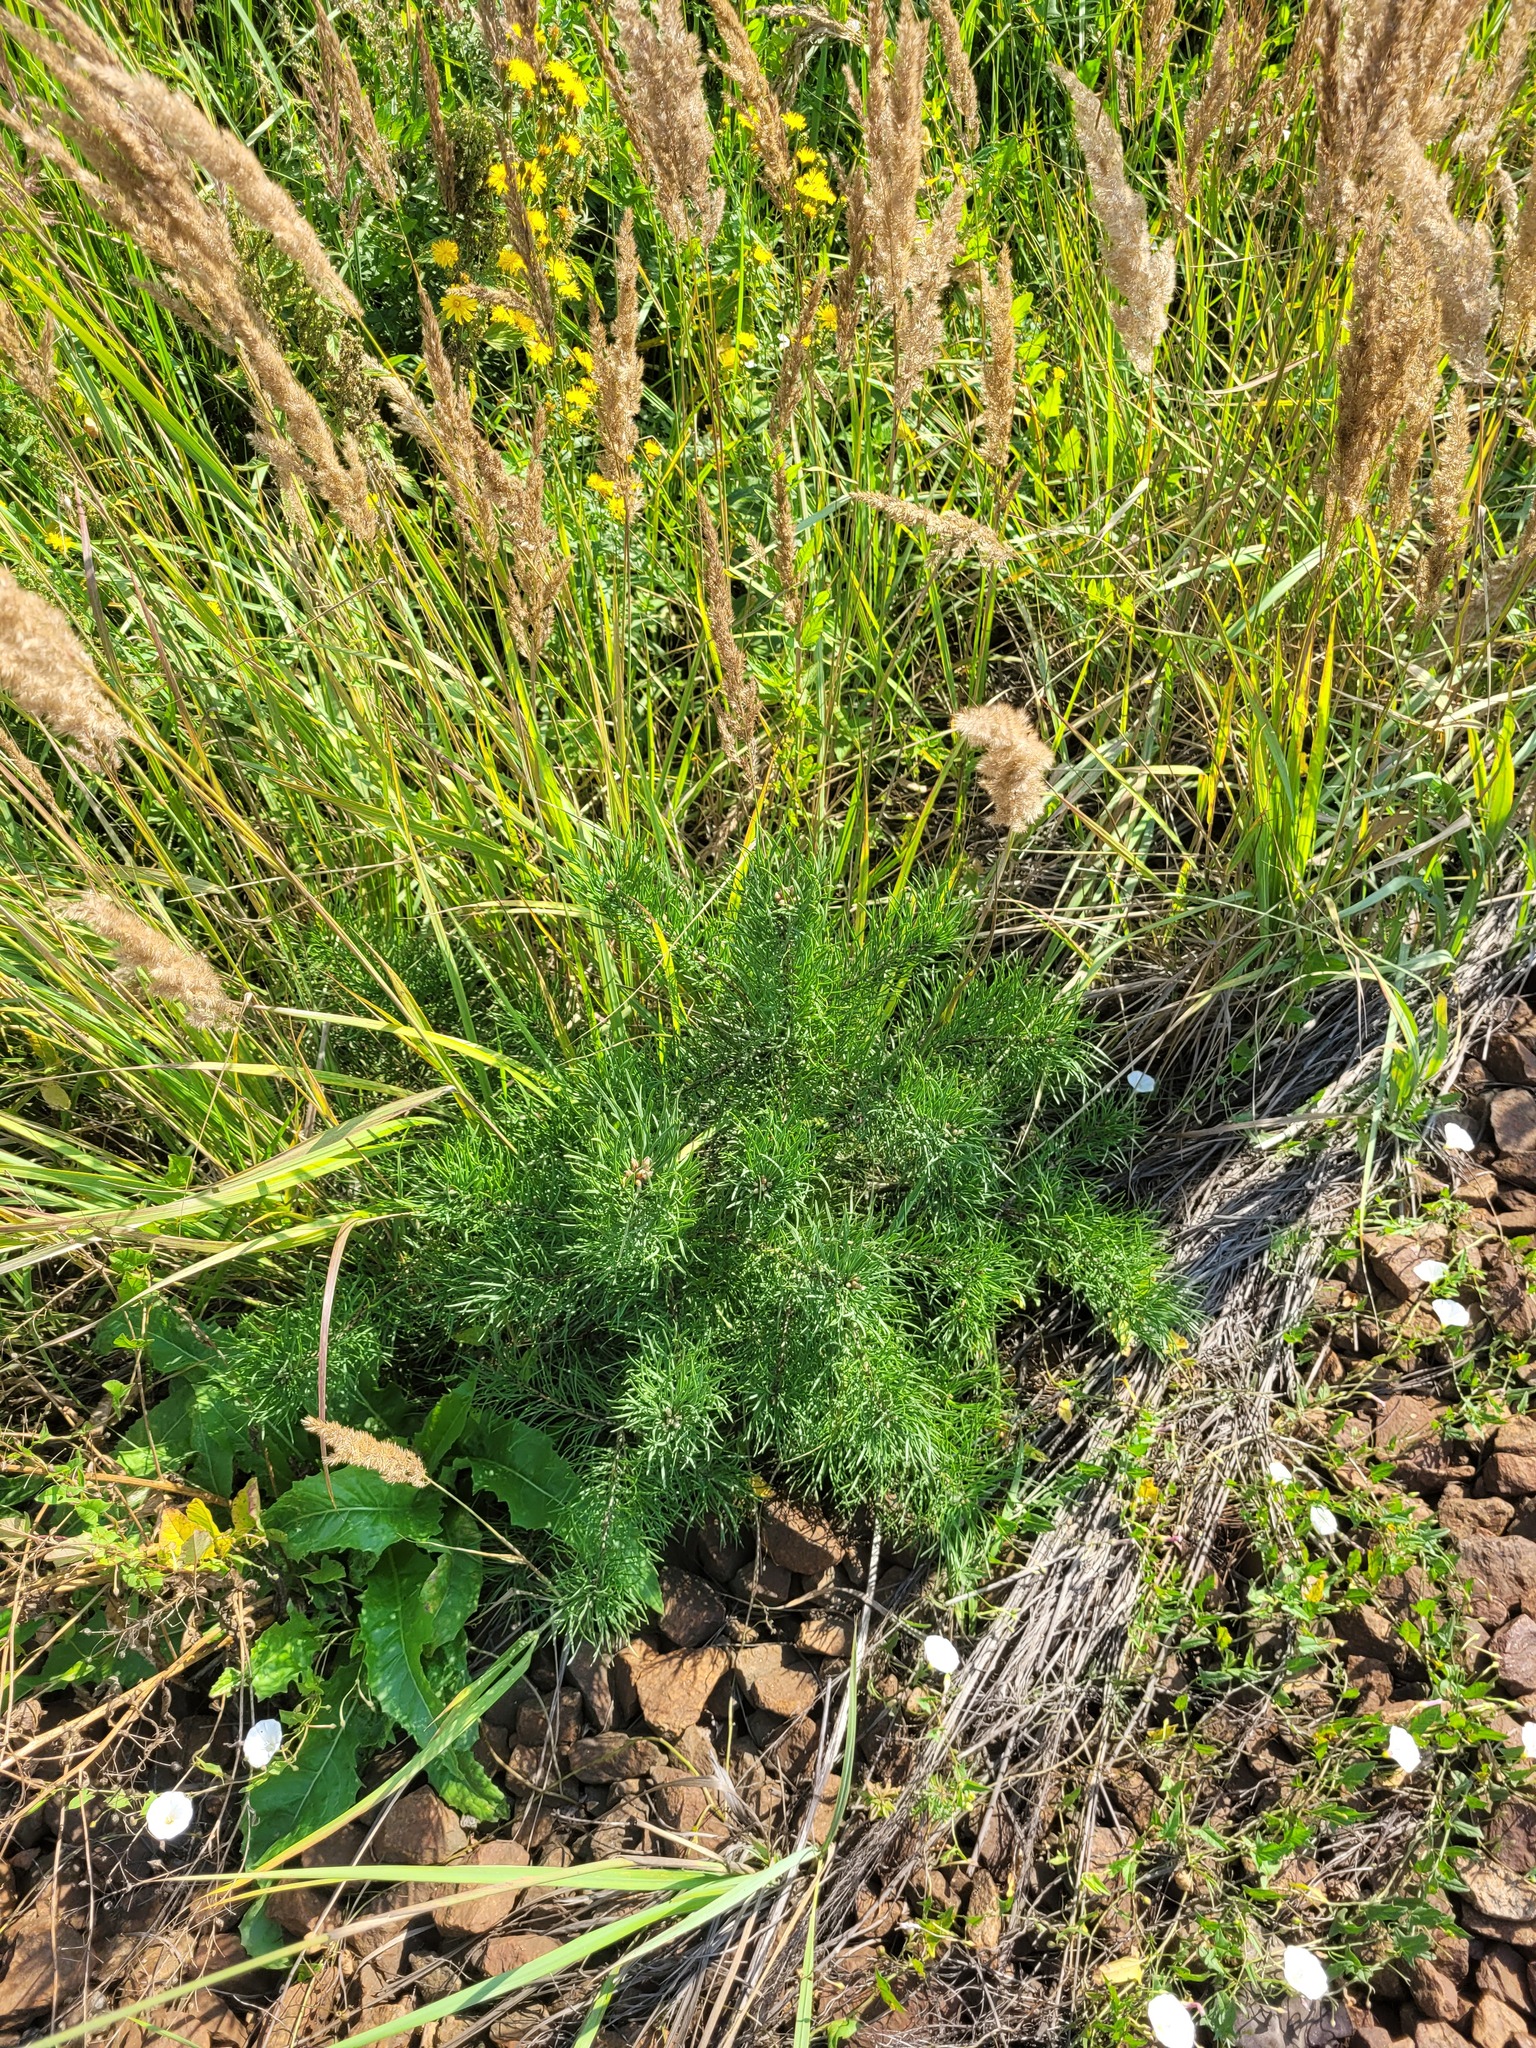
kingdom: Plantae
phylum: Tracheophyta
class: Pinopsida
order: Pinales
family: Pinaceae
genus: Pinus
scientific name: Pinus sylvestris
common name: Scots pine
